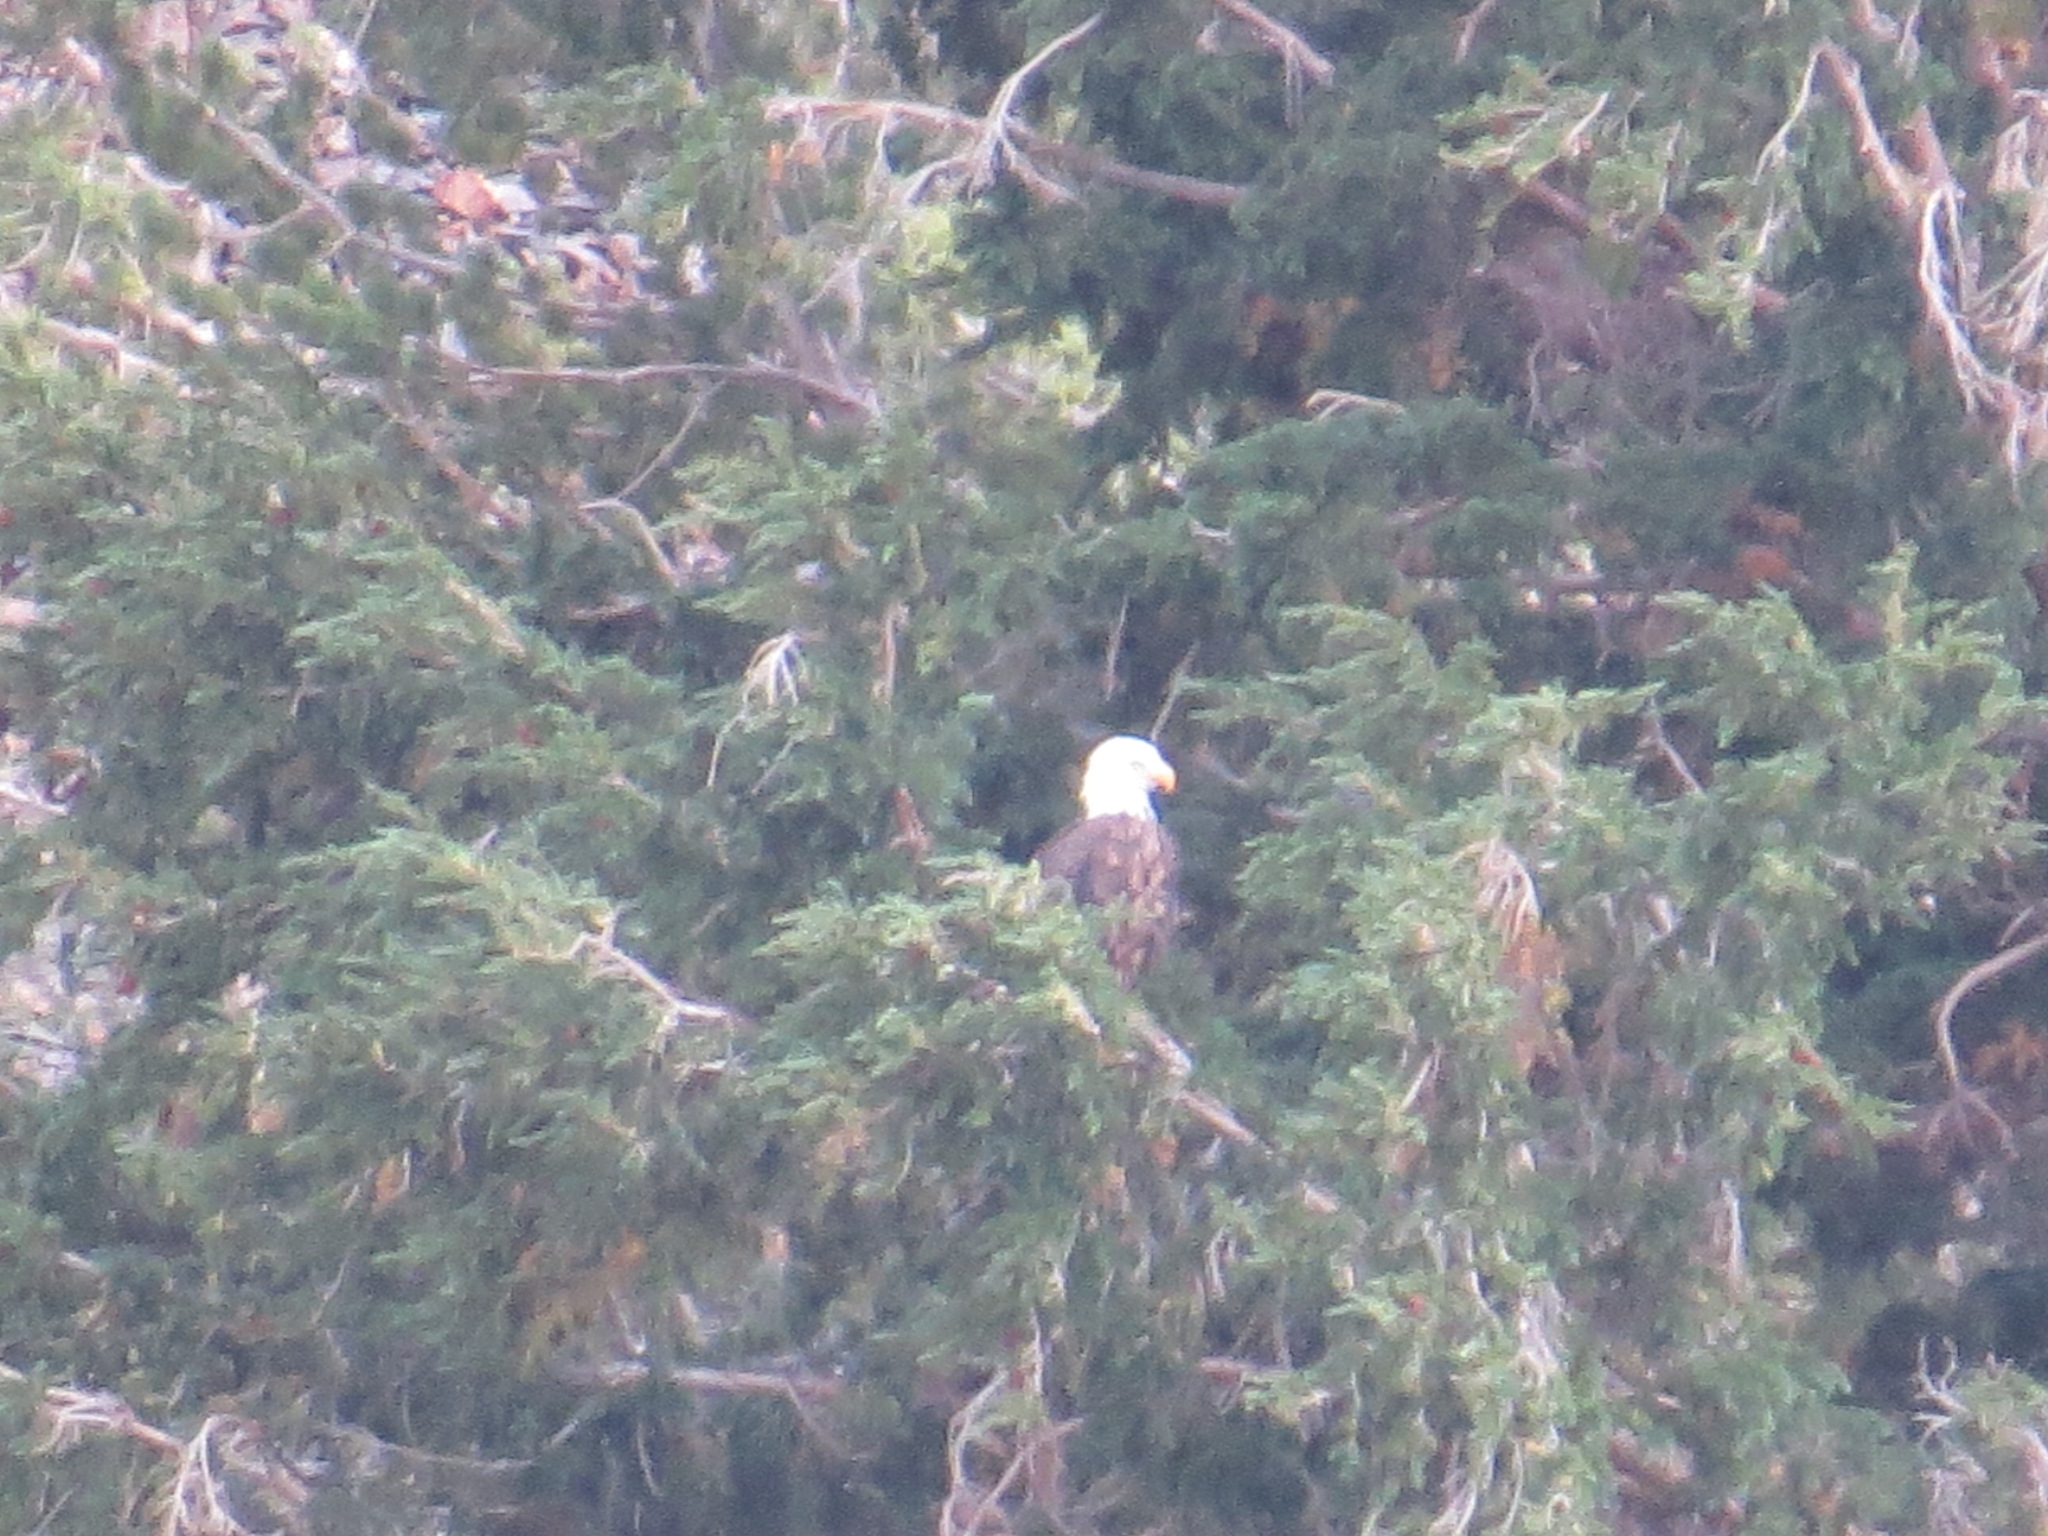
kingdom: Animalia
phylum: Chordata
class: Aves
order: Accipitriformes
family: Accipitridae
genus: Haliaeetus
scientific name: Haliaeetus leucocephalus
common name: Bald eagle
